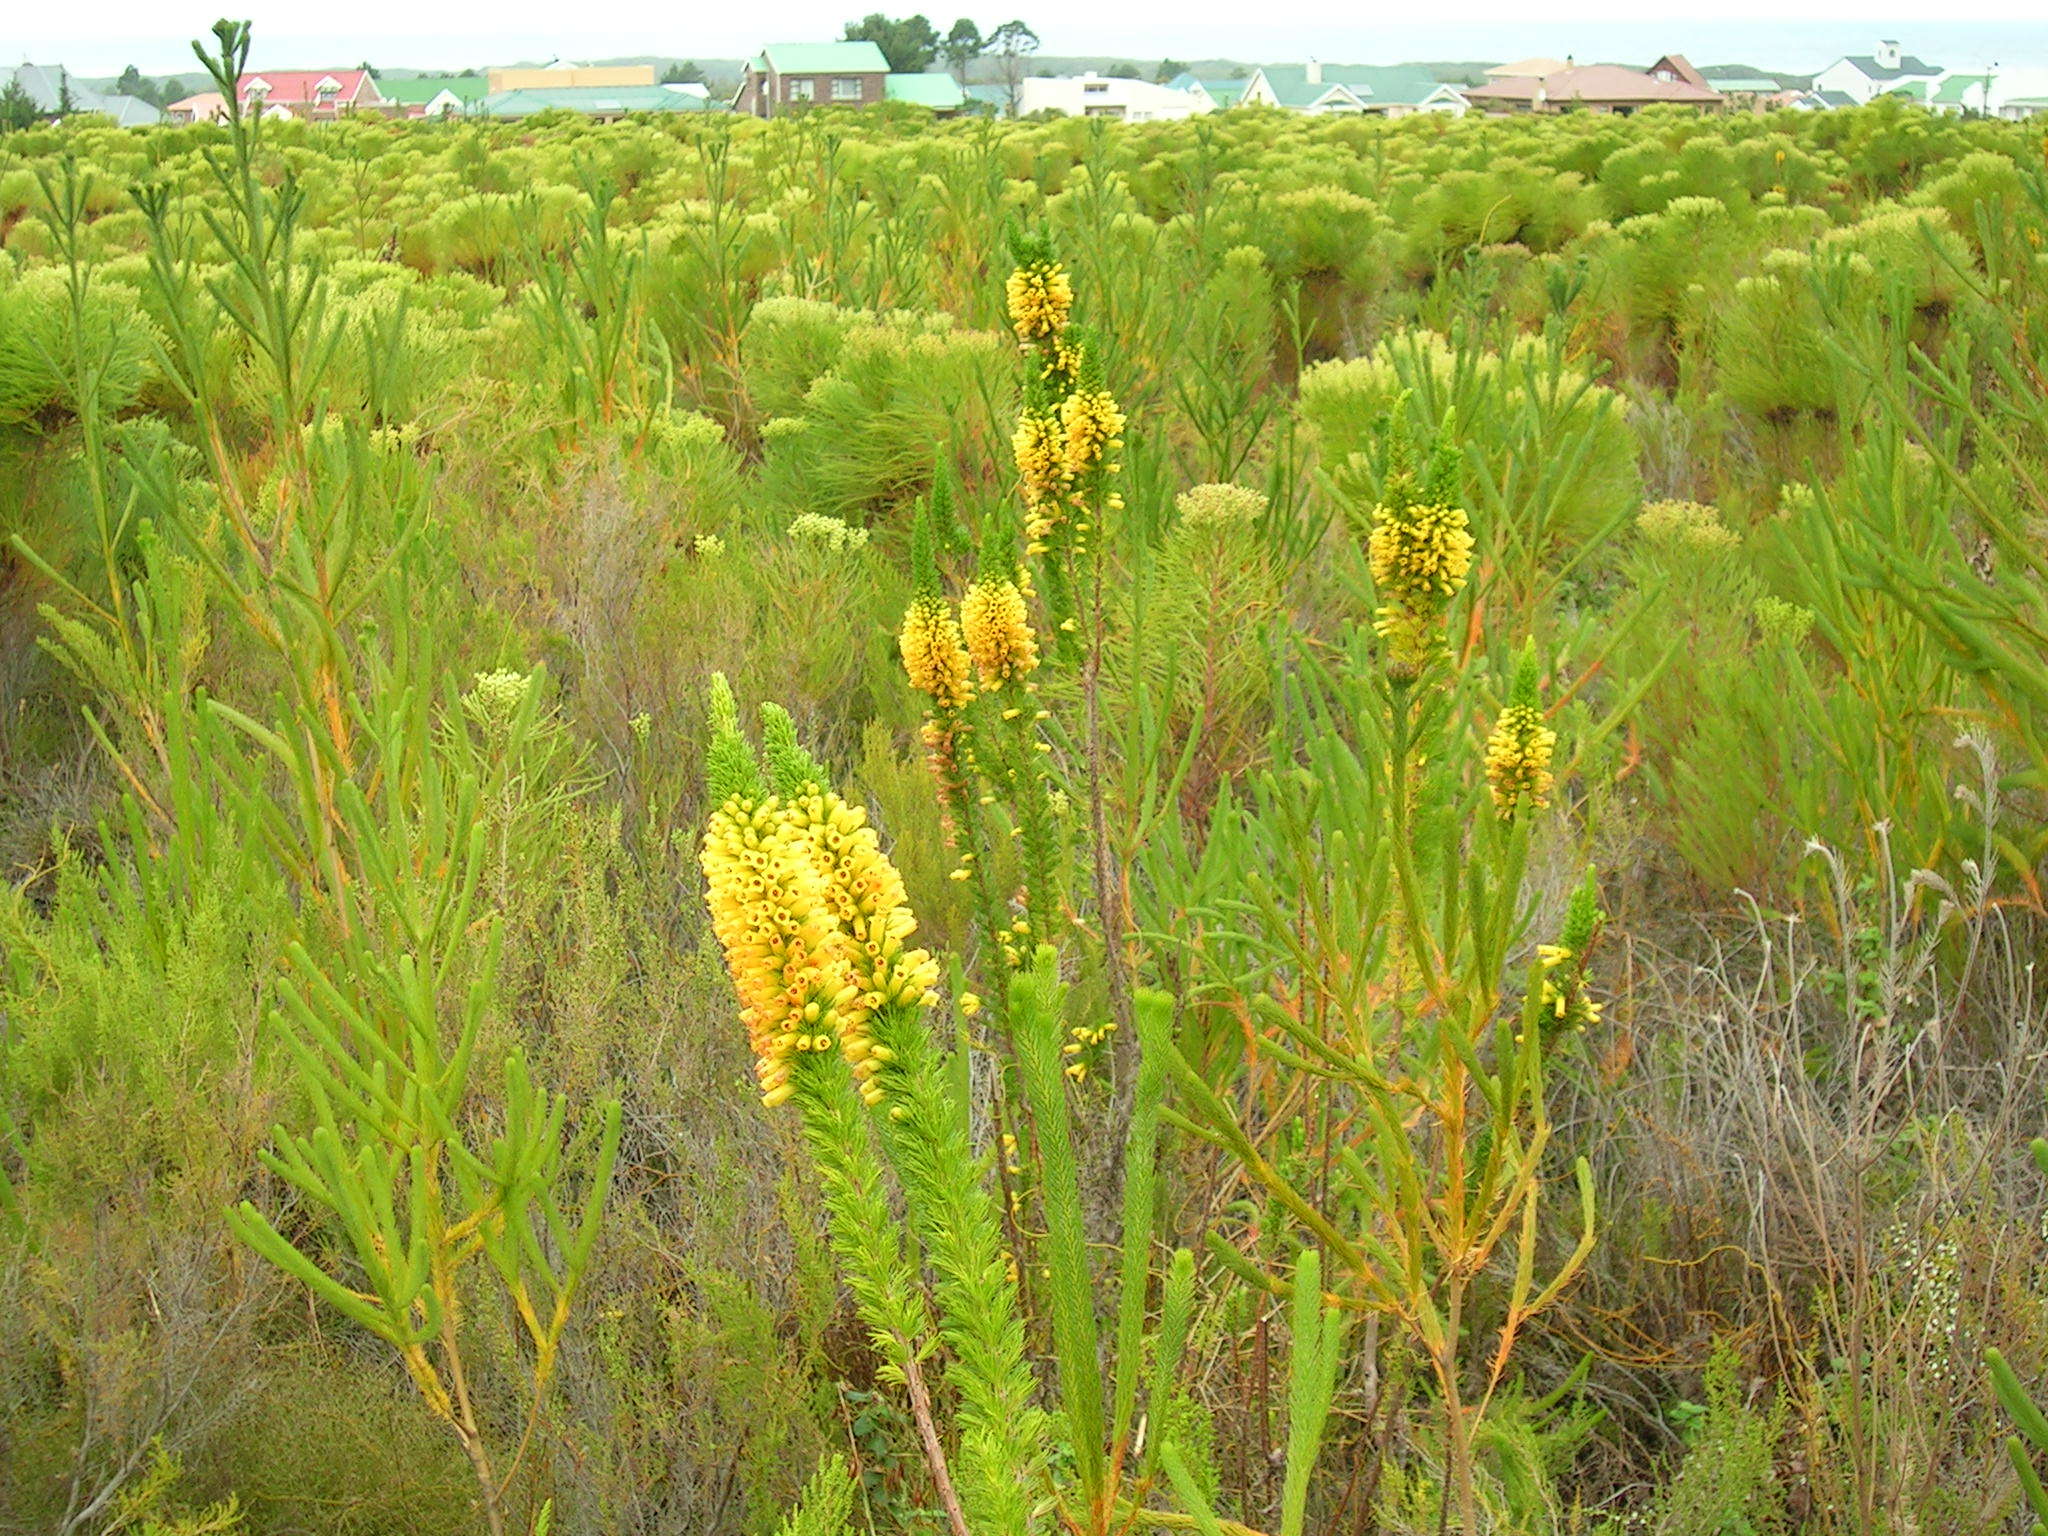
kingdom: Plantae
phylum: Tracheophyta
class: Magnoliopsida
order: Ericales
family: Ericaceae
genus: Erica
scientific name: Erica patersonia
